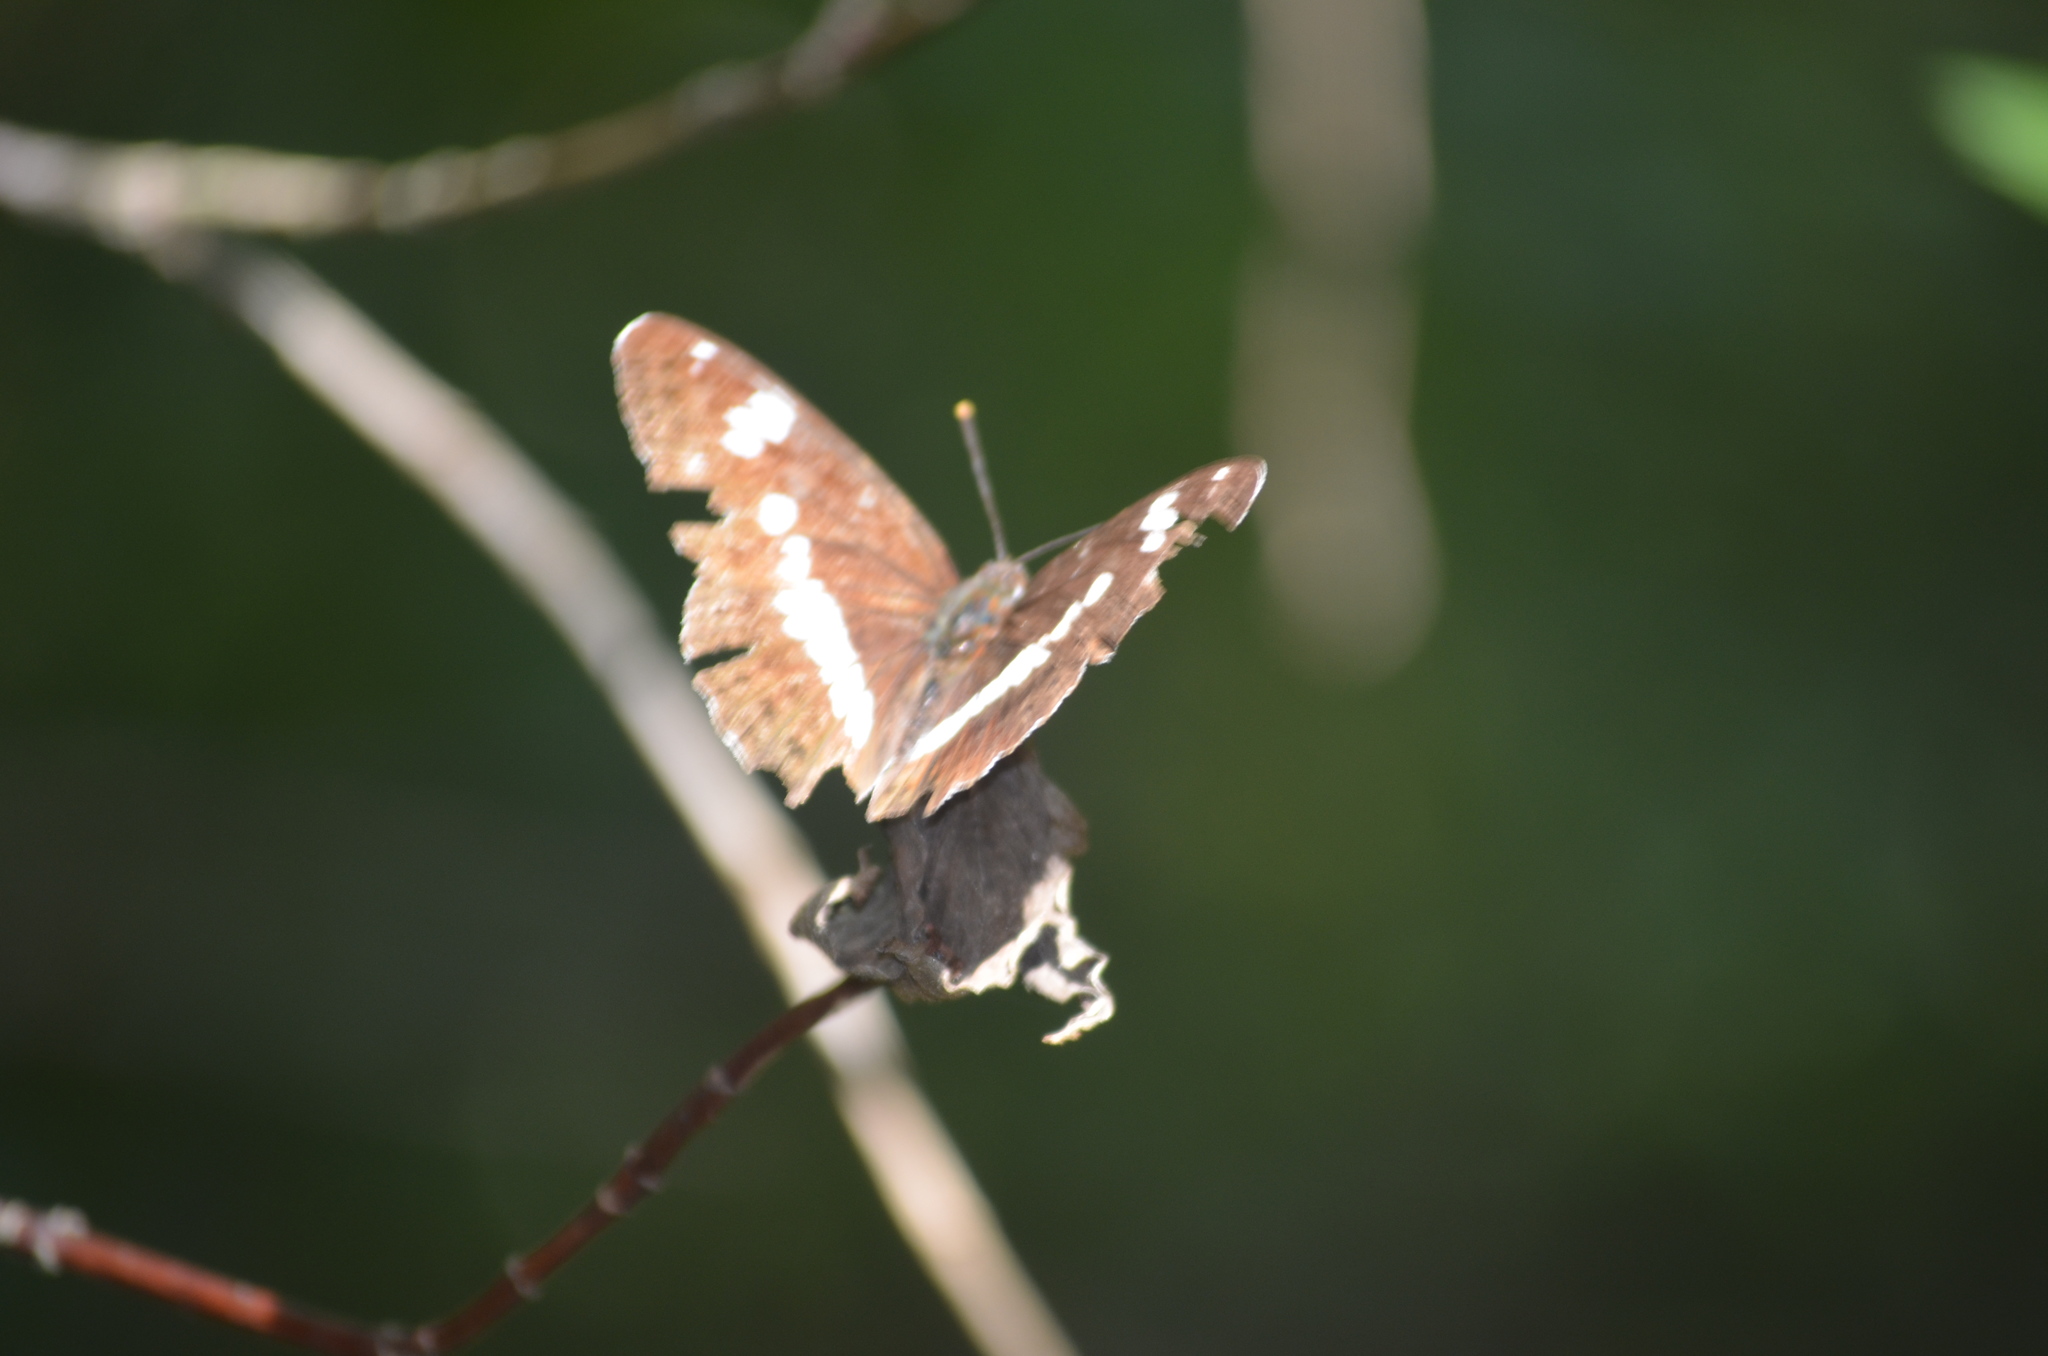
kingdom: Animalia
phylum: Arthropoda
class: Insecta
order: Lepidoptera
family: Nymphalidae
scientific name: Nymphalidae
